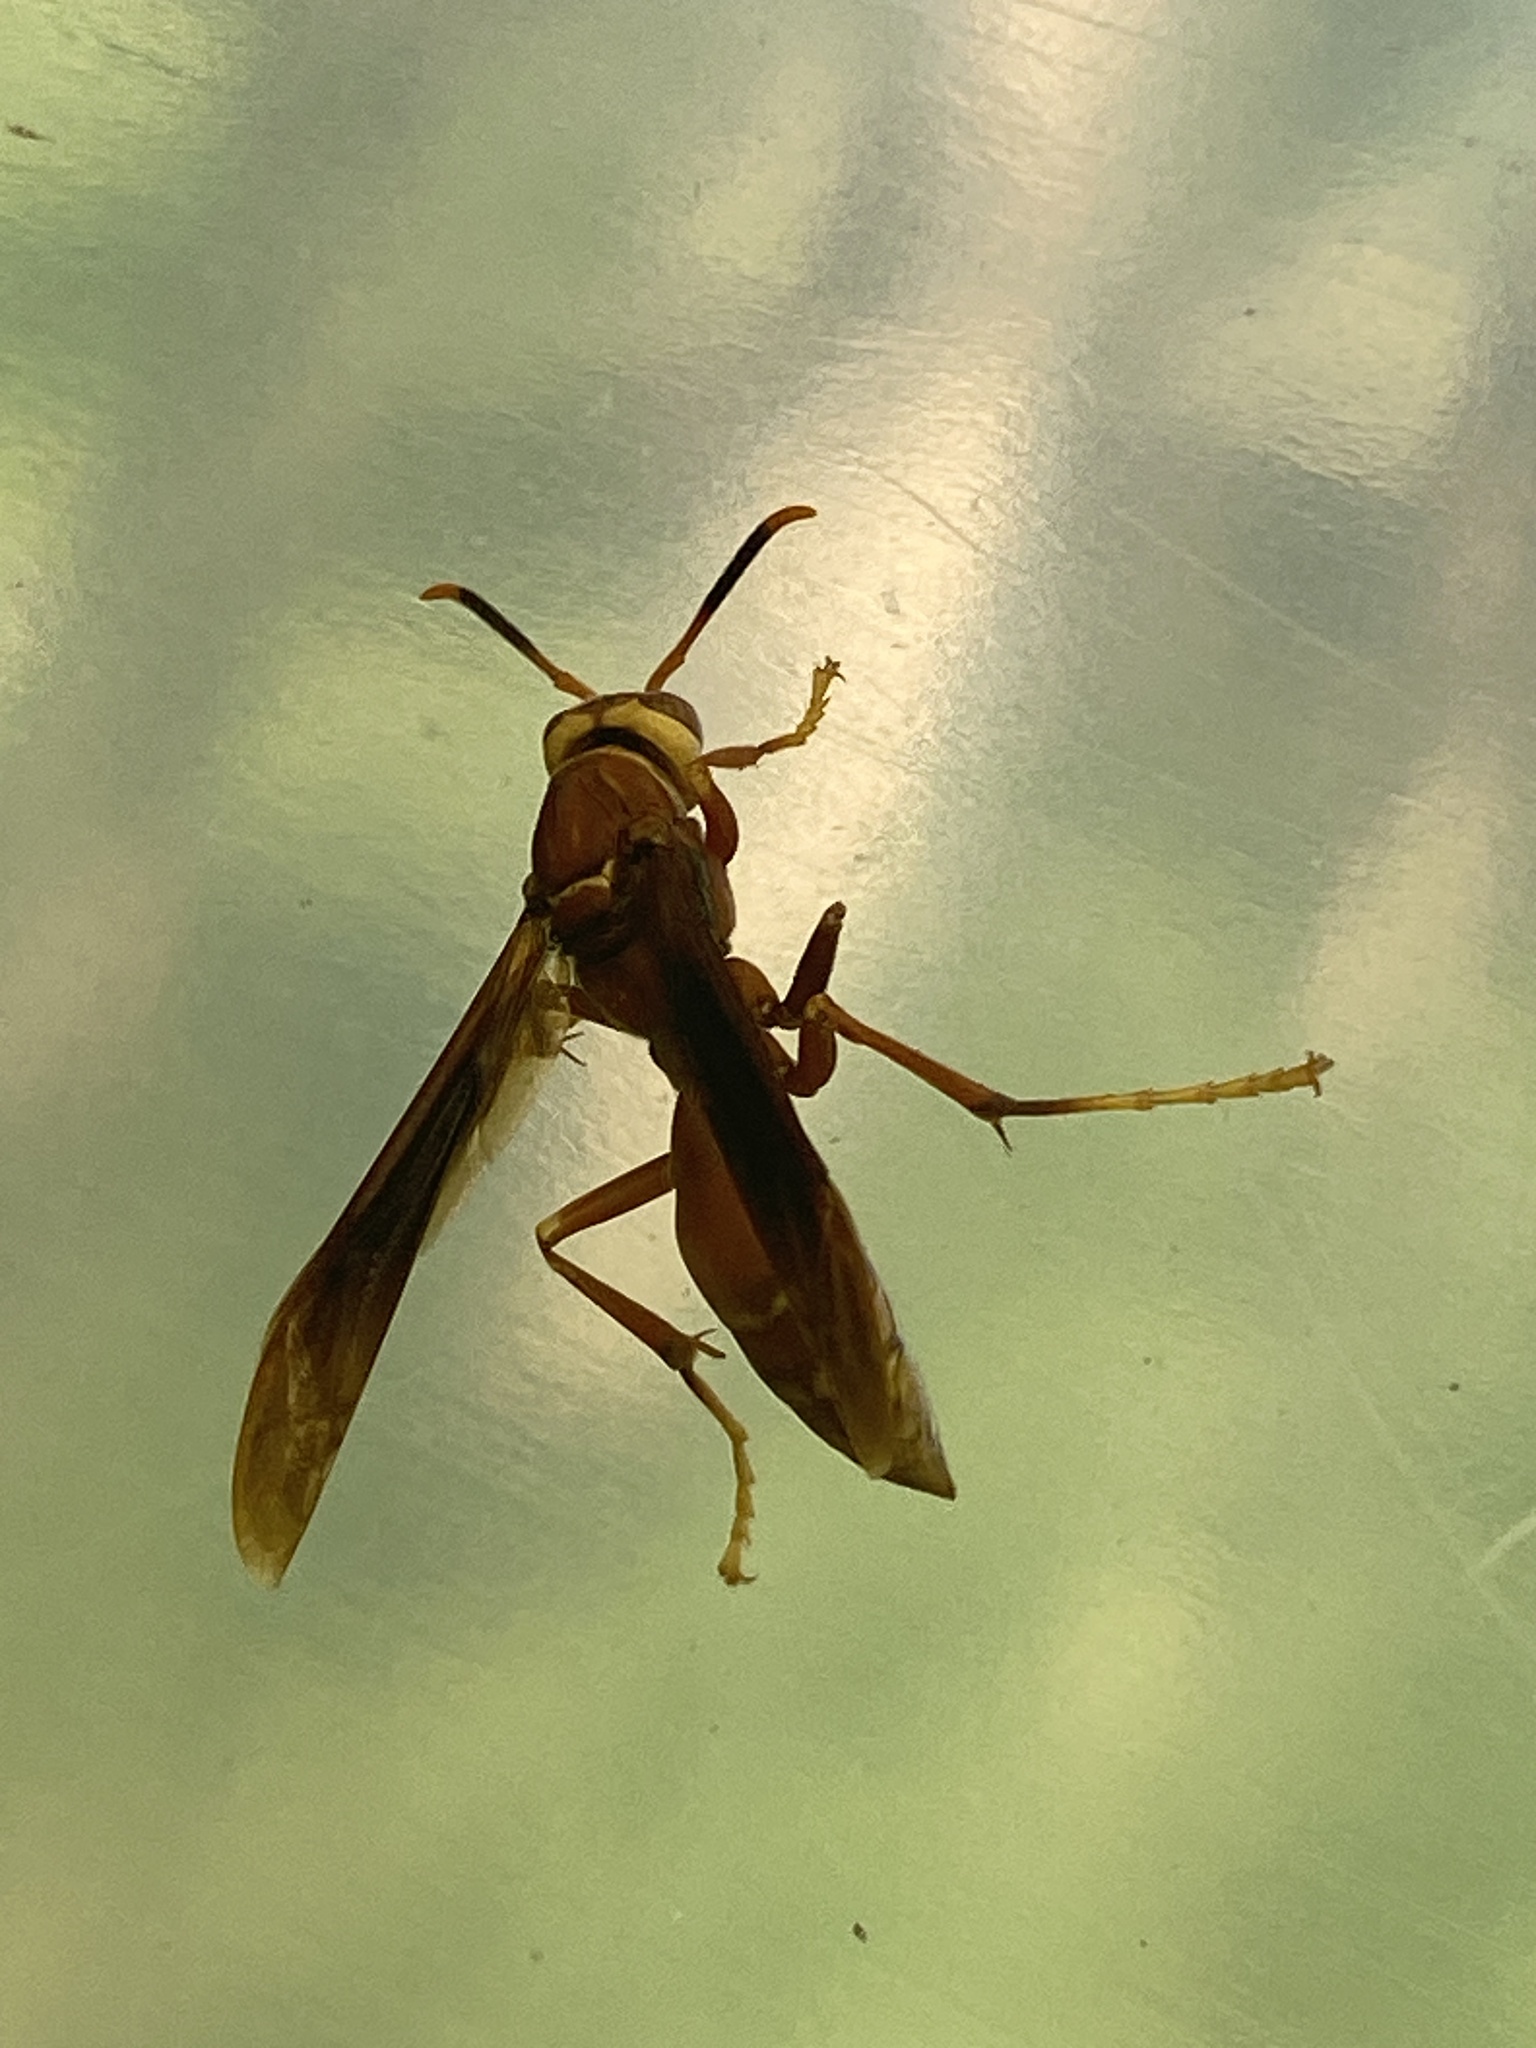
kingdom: Animalia
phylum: Arthropoda
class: Insecta
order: Hymenoptera
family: Eumenidae
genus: Polistes
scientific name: Polistes cavapyta
